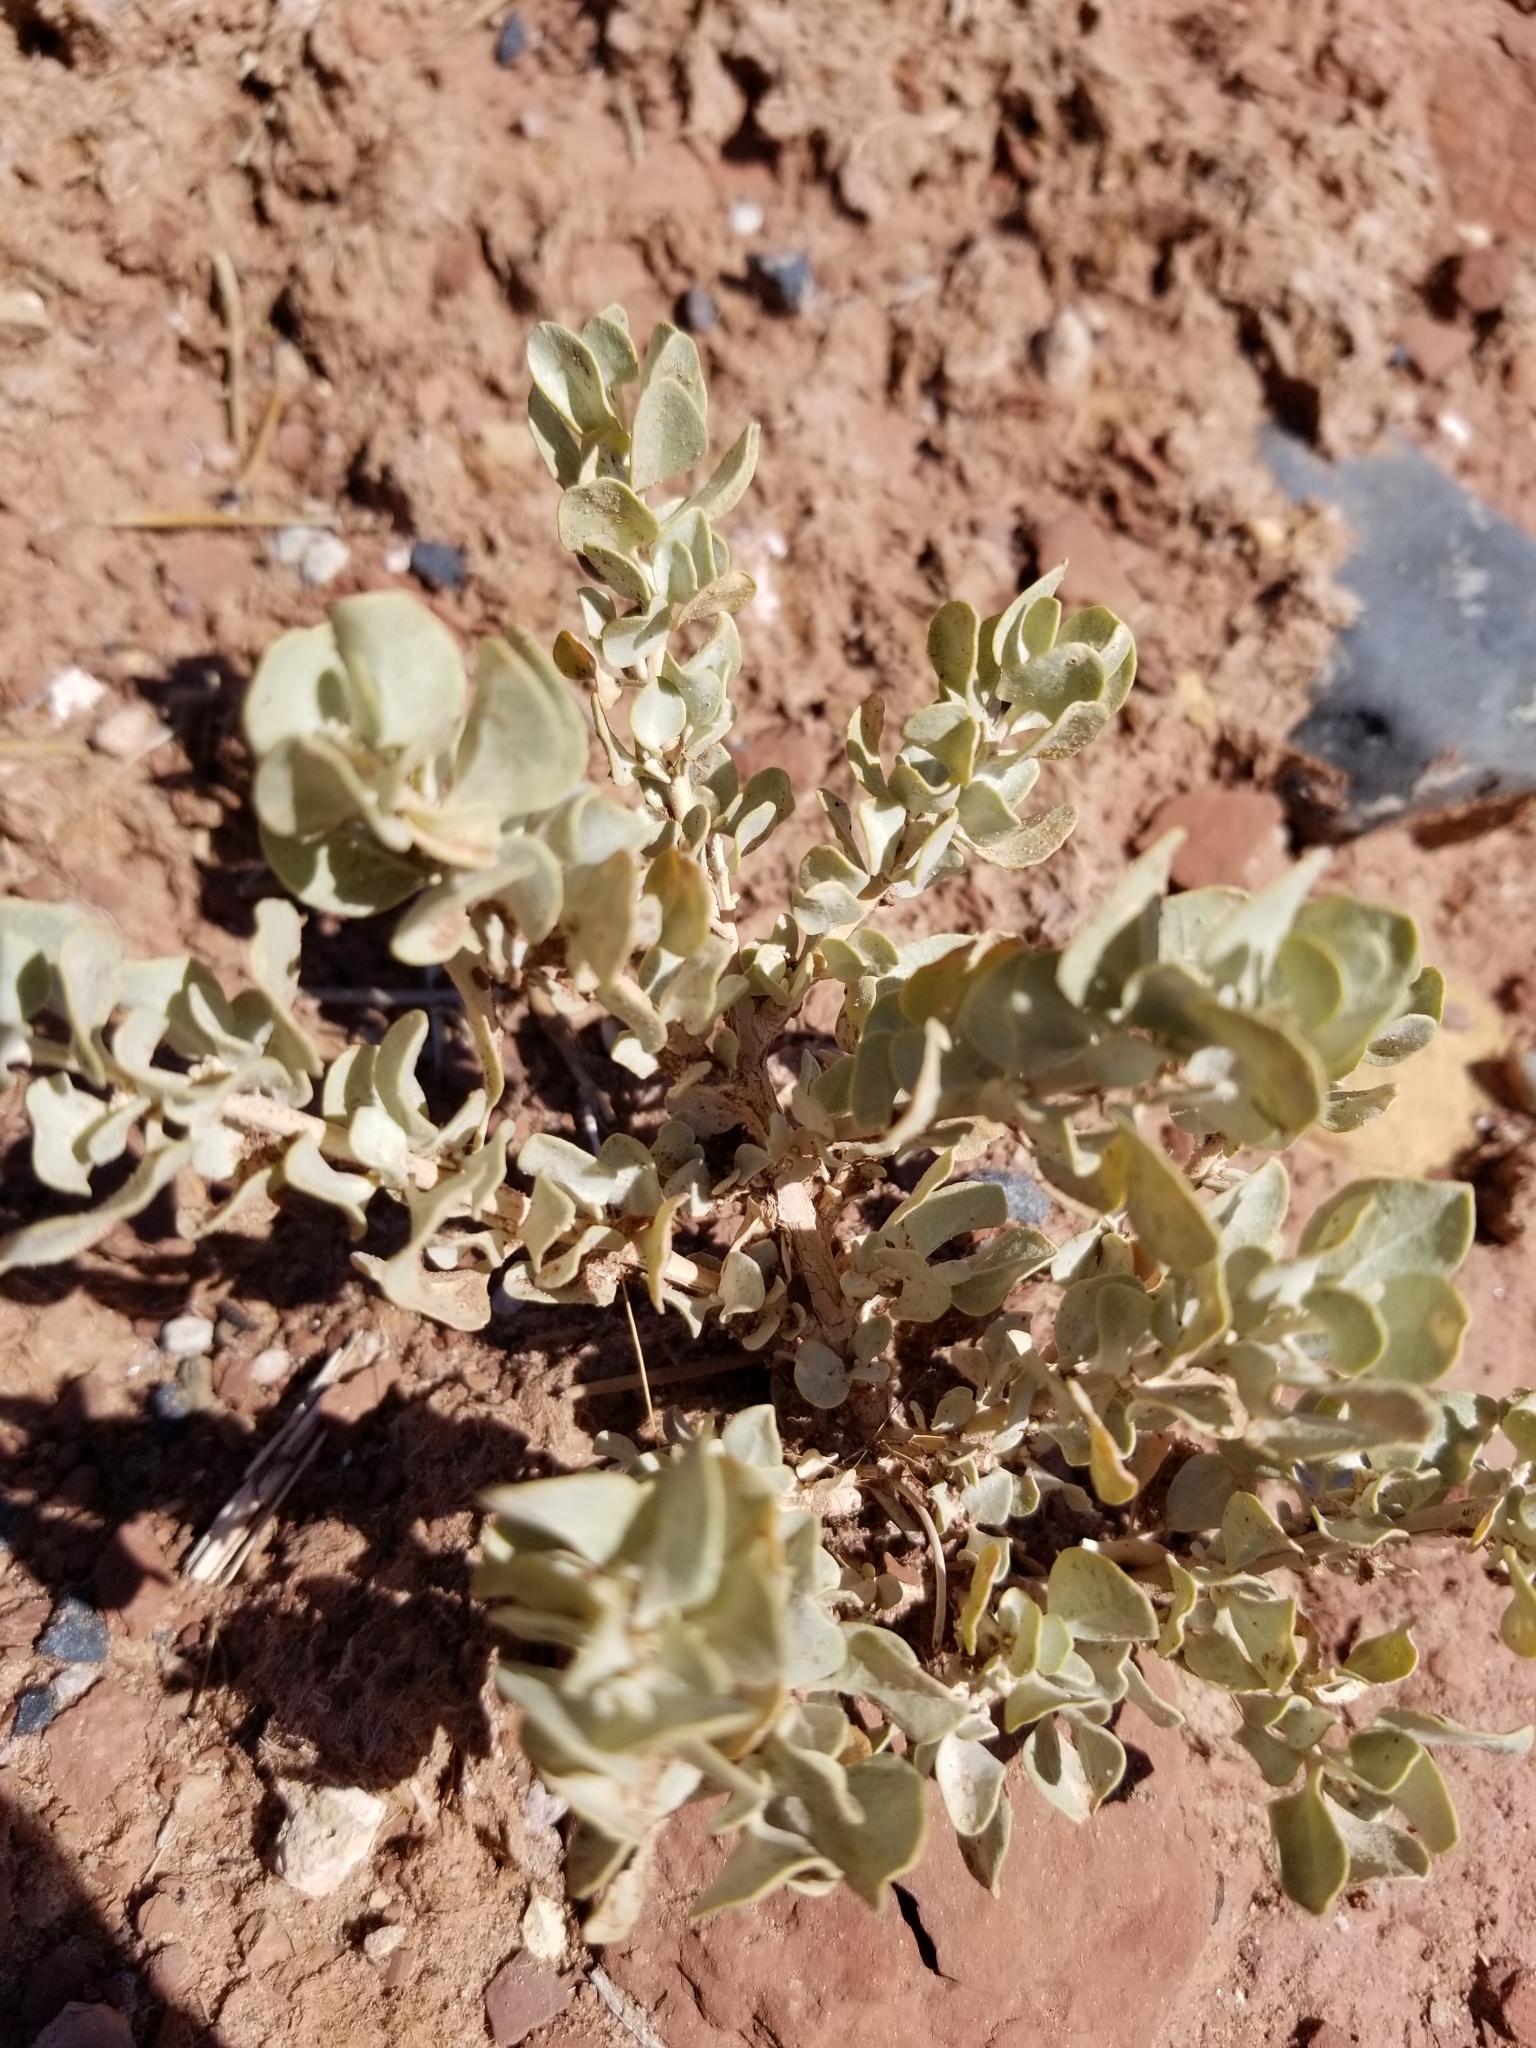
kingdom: Plantae
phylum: Tracheophyta
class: Magnoliopsida
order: Caryophyllales
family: Amaranthaceae
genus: Atriplex
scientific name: Atriplex confertifolia
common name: Shadscale
